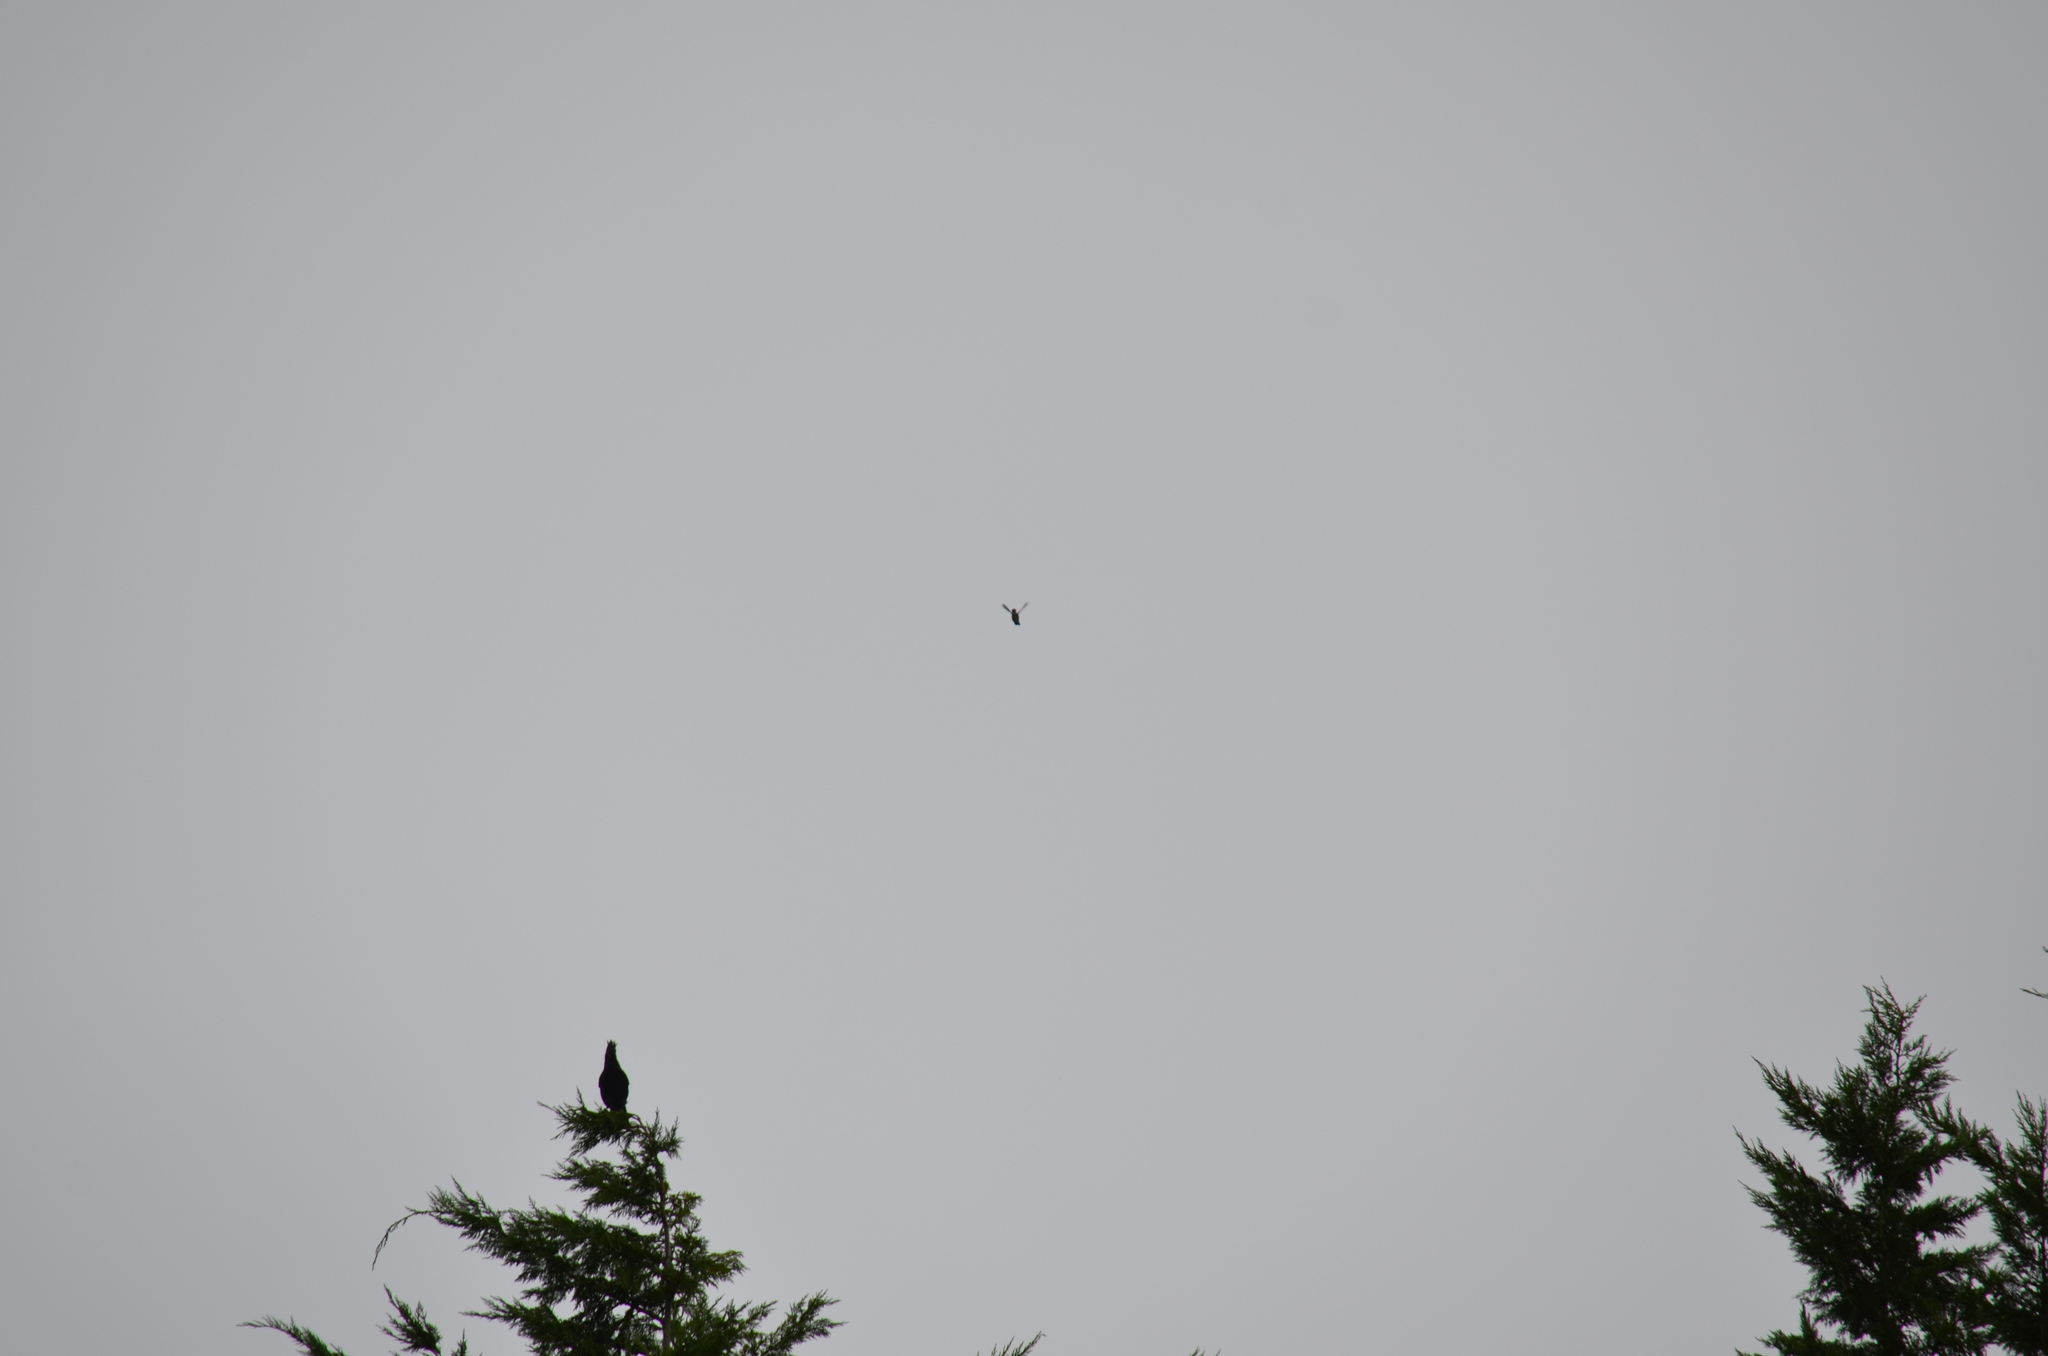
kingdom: Animalia
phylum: Chordata
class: Aves
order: Apodiformes
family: Trochilidae
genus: Calypte
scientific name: Calypte anna
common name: Anna's hummingbird
